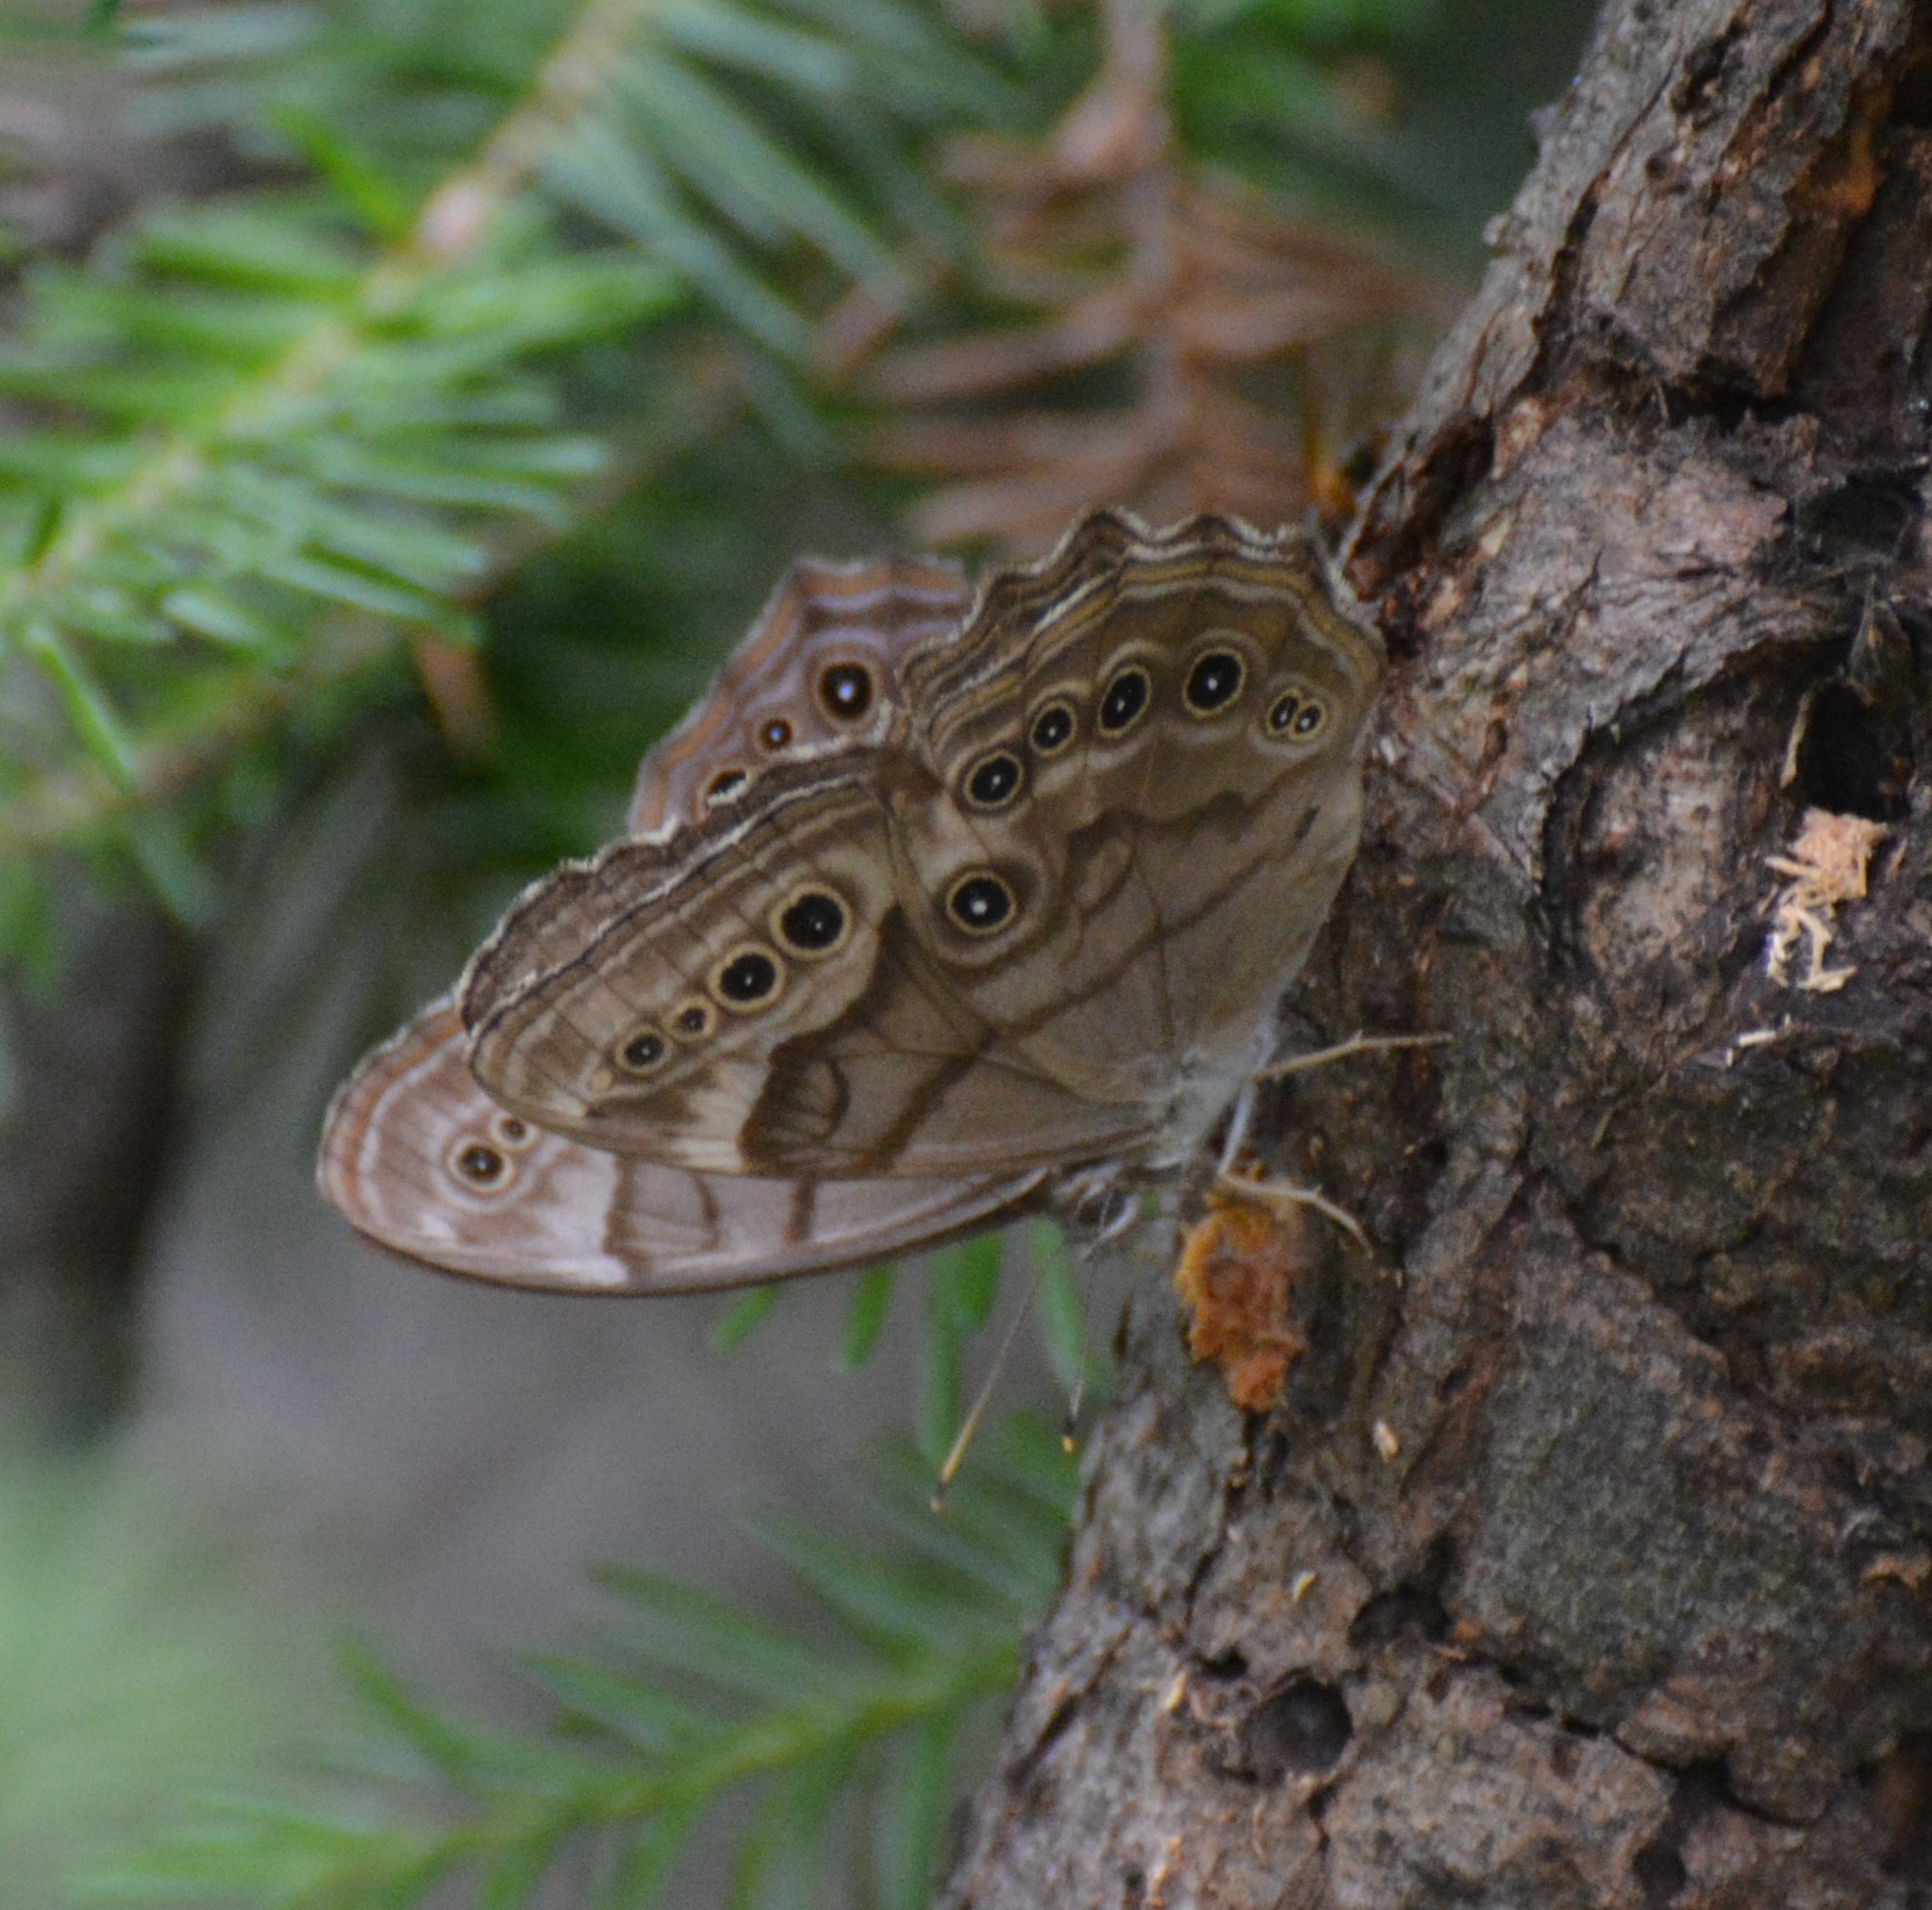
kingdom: Animalia
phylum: Arthropoda
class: Insecta
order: Lepidoptera
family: Nymphalidae
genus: Lethe
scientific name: Lethe anthedon
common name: Northern pearly-eye
